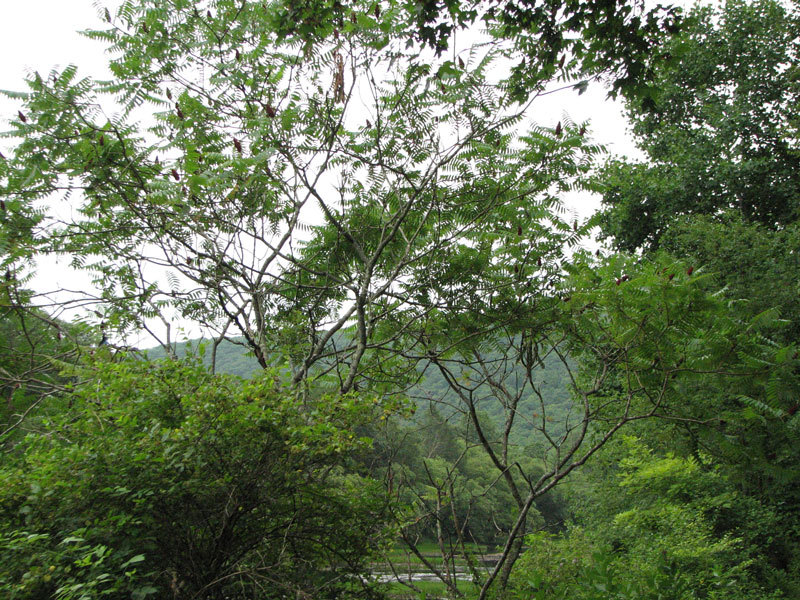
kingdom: Plantae
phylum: Tracheophyta
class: Magnoliopsida
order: Sapindales
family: Anacardiaceae
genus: Rhus
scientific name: Rhus typhina
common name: Staghorn sumac
